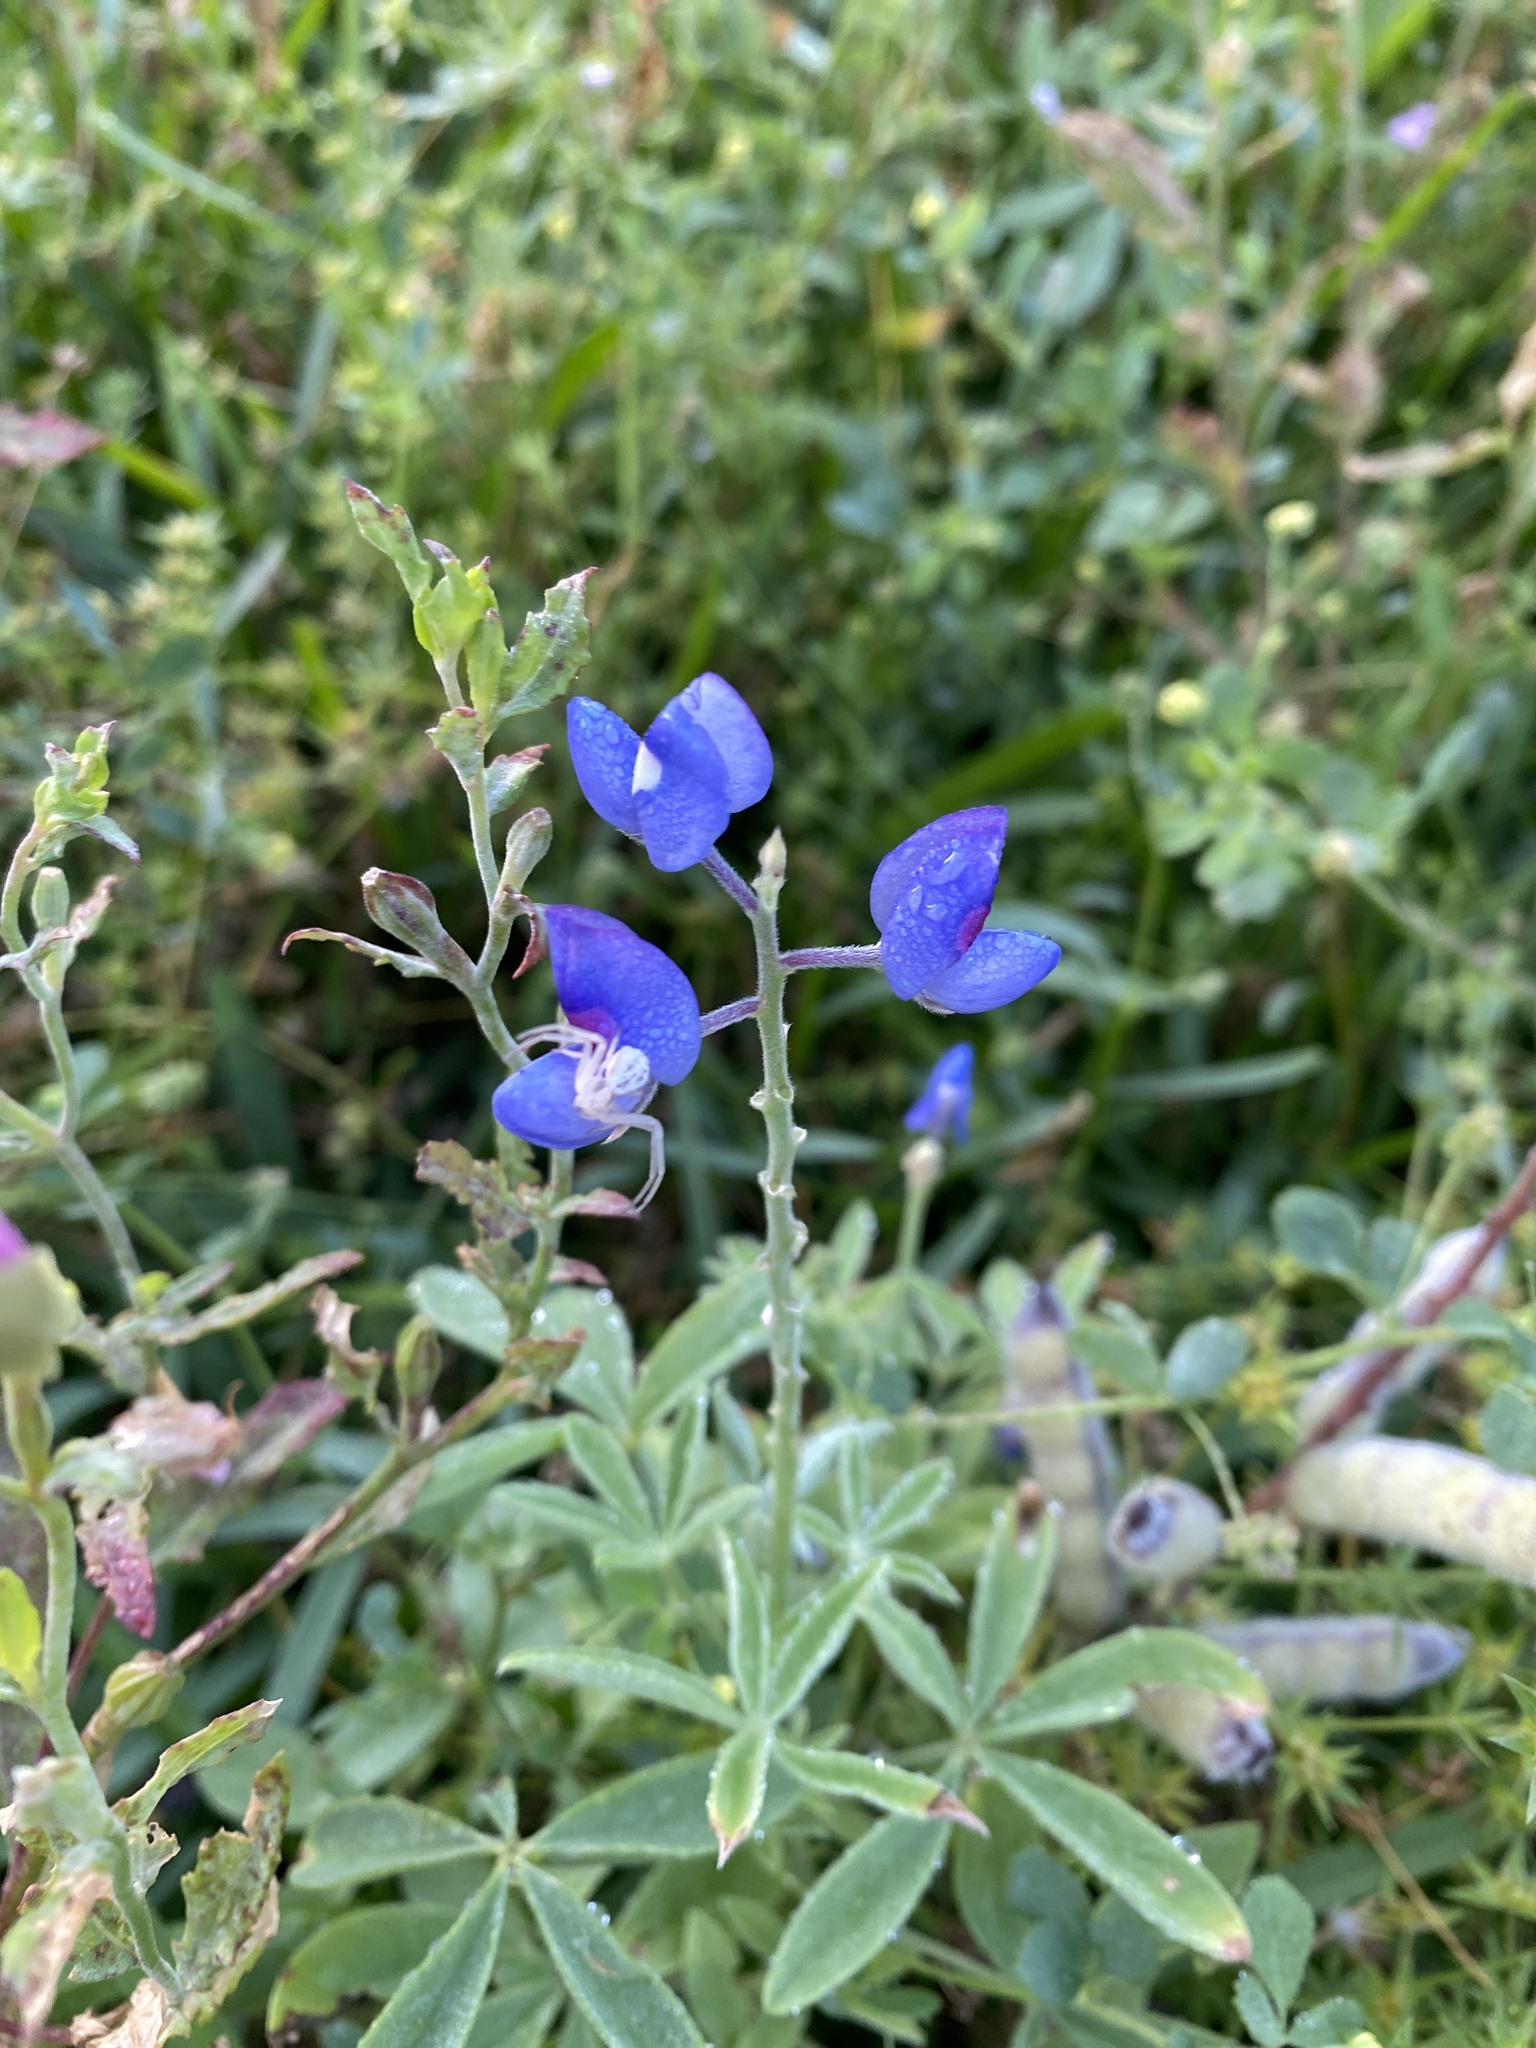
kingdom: Plantae
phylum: Tracheophyta
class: Magnoliopsida
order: Fabales
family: Fabaceae
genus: Lupinus
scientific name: Lupinus texensis
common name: Texas bluebonnet
